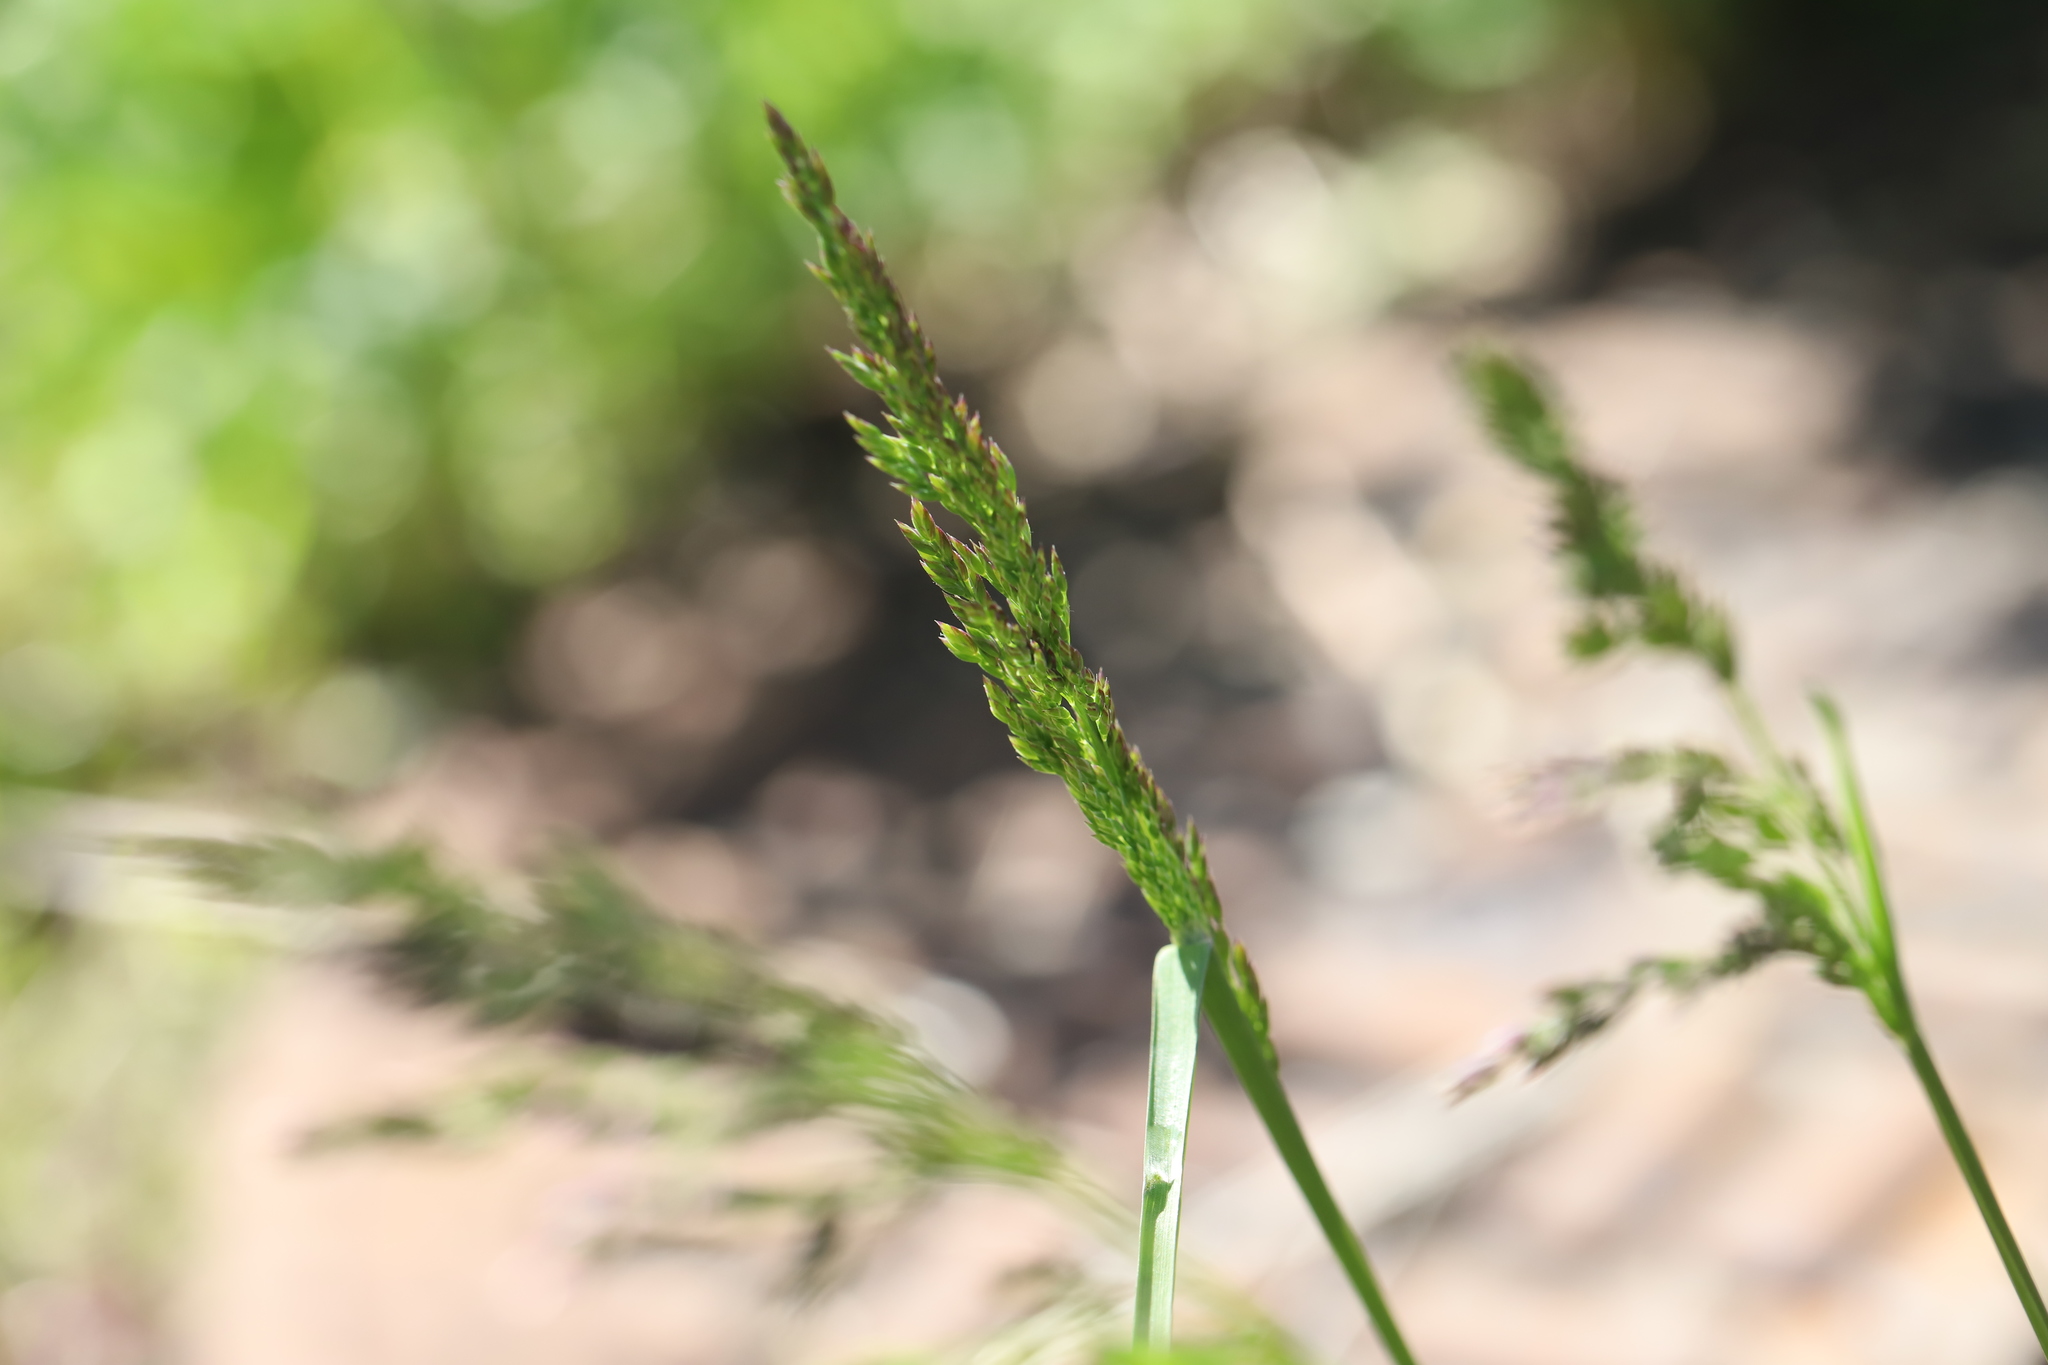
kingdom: Plantae
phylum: Tracheophyta
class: Liliopsida
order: Poales
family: Poaceae
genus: Poa
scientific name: Poa pratensis
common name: Kentucky bluegrass
